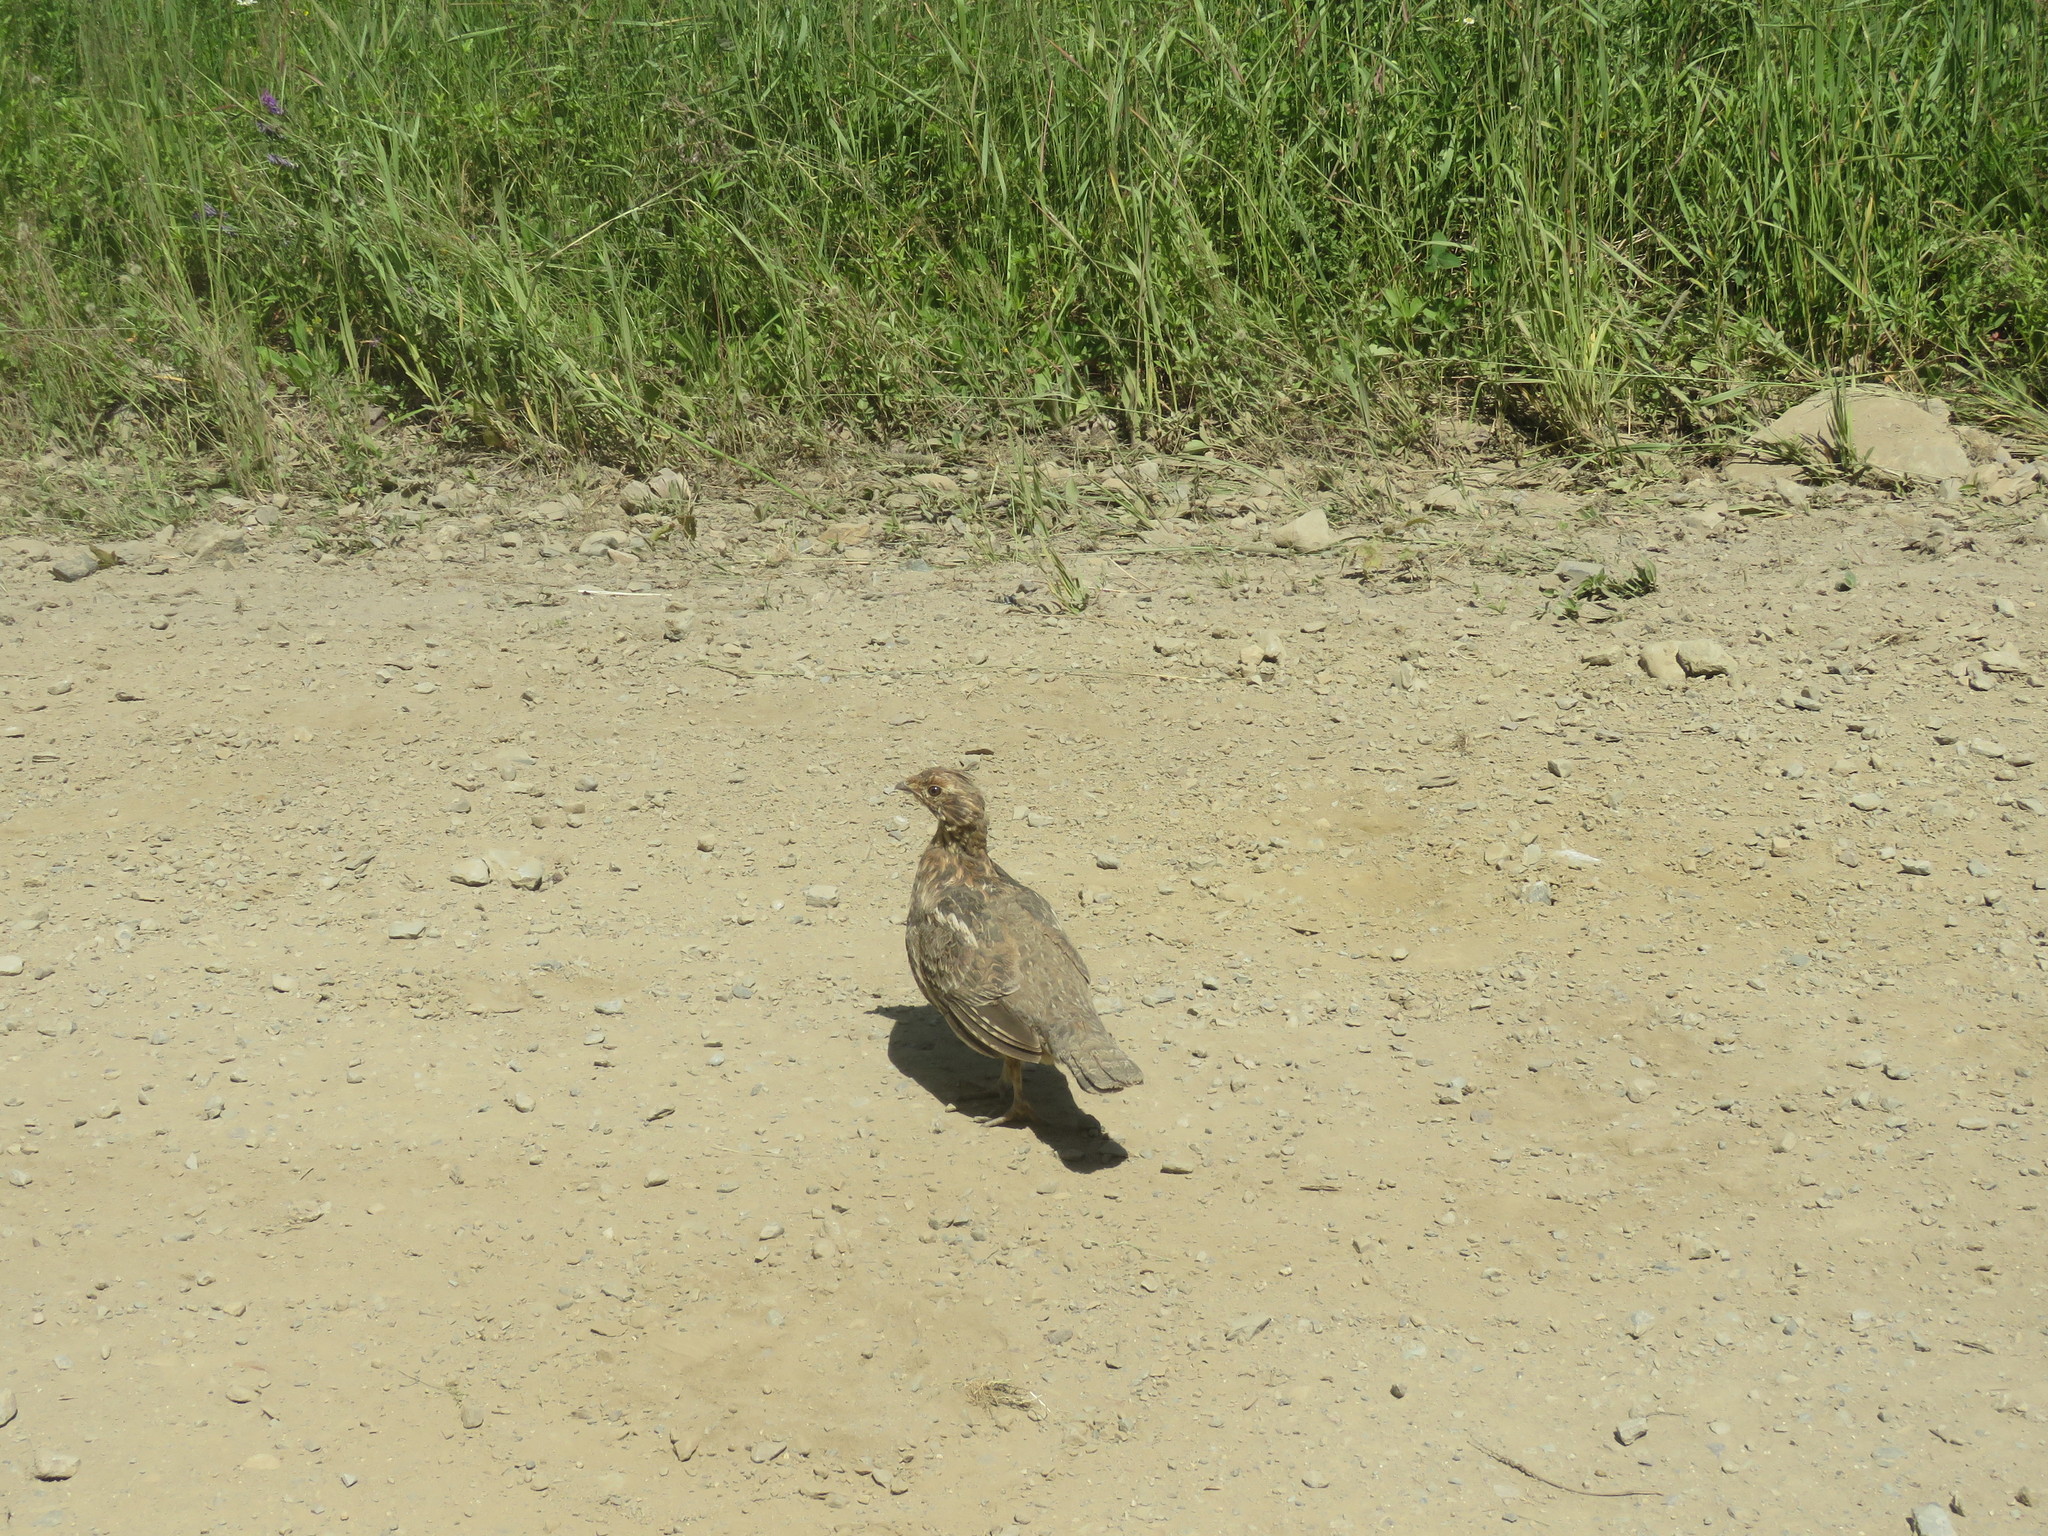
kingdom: Animalia
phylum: Chordata
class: Aves
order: Galliformes
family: Phasianidae
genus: Bonasa
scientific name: Bonasa umbellus
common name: Ruffed grouse
